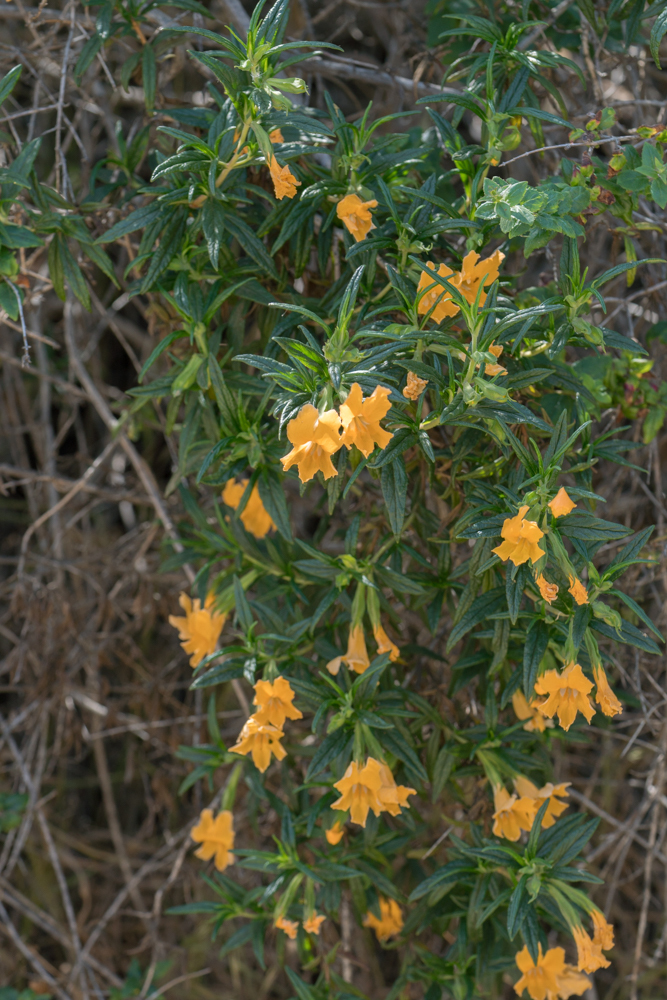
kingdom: Plantae
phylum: Tracheophyta
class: Magnoliopsida
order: Lamiales
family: Phrymaceae
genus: Diplacus
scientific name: Diplacus longiflorus
